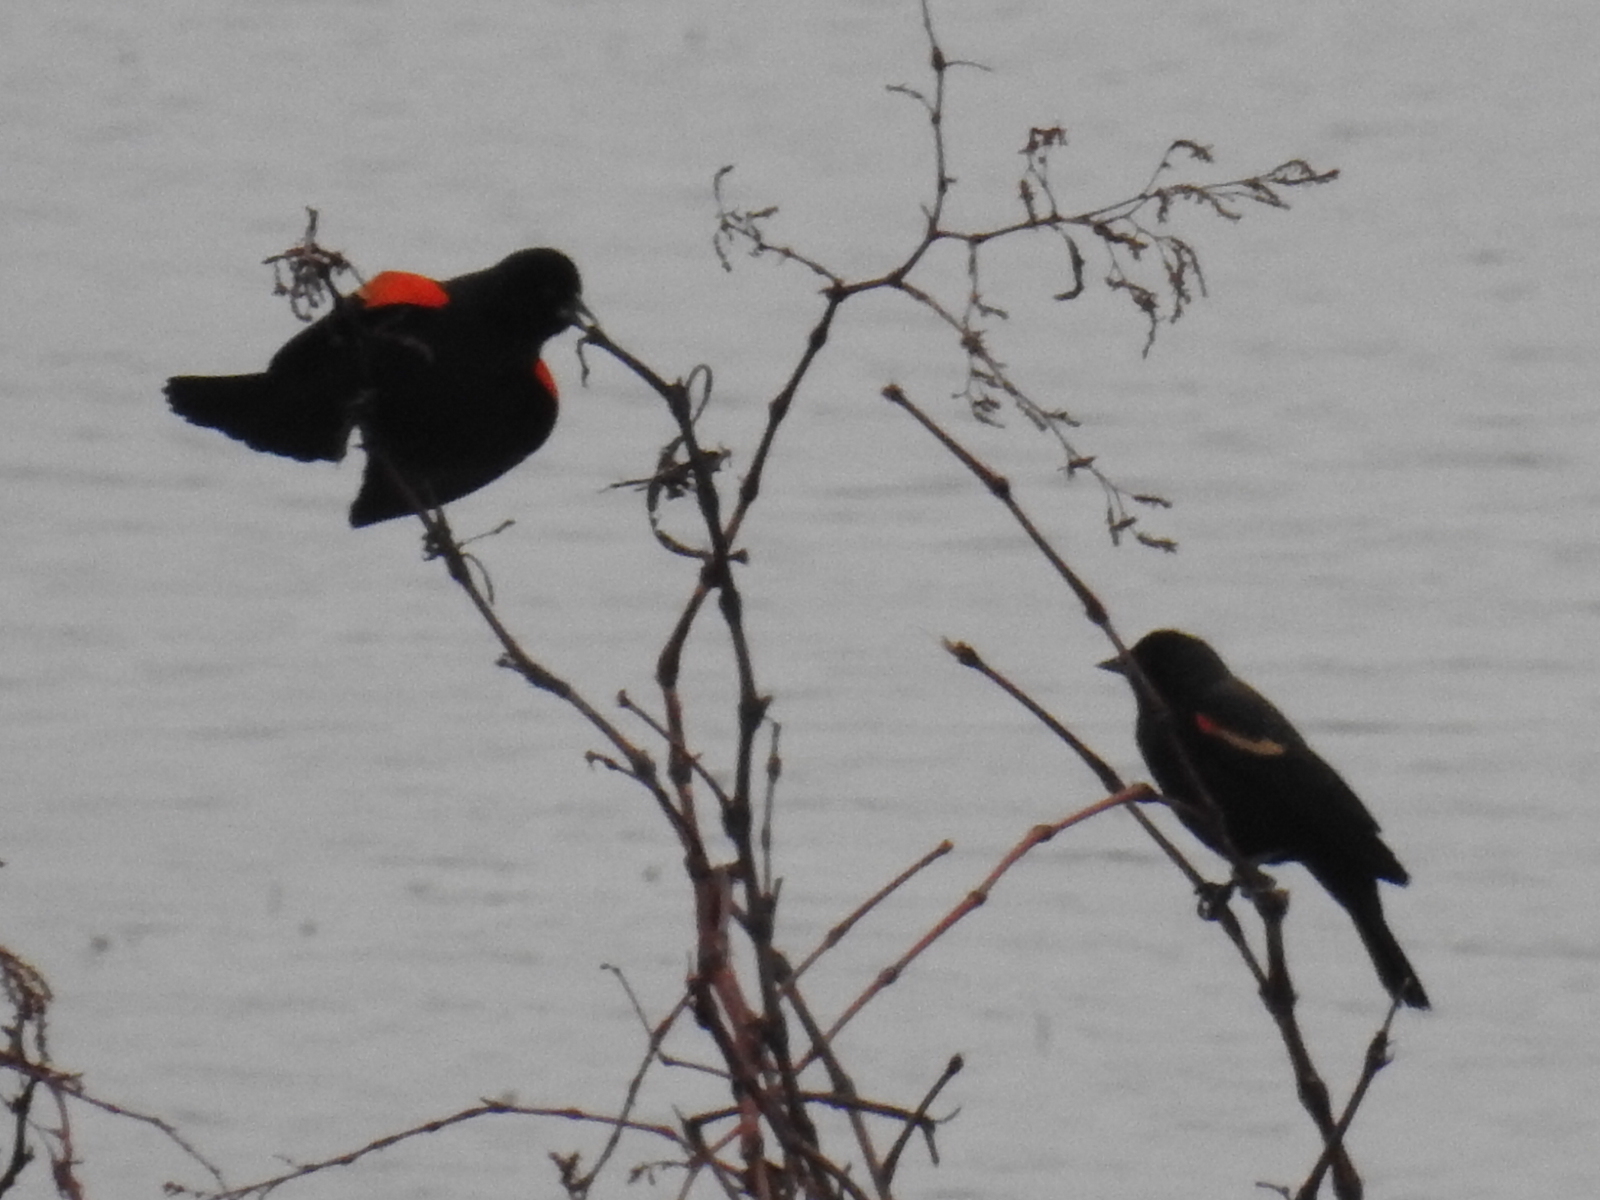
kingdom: Animalia
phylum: Chordata
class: Aves
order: Passeriformes
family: Icteridae
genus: Agelaius
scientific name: Agelaius phoeniceus
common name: Red-winged blackbird
